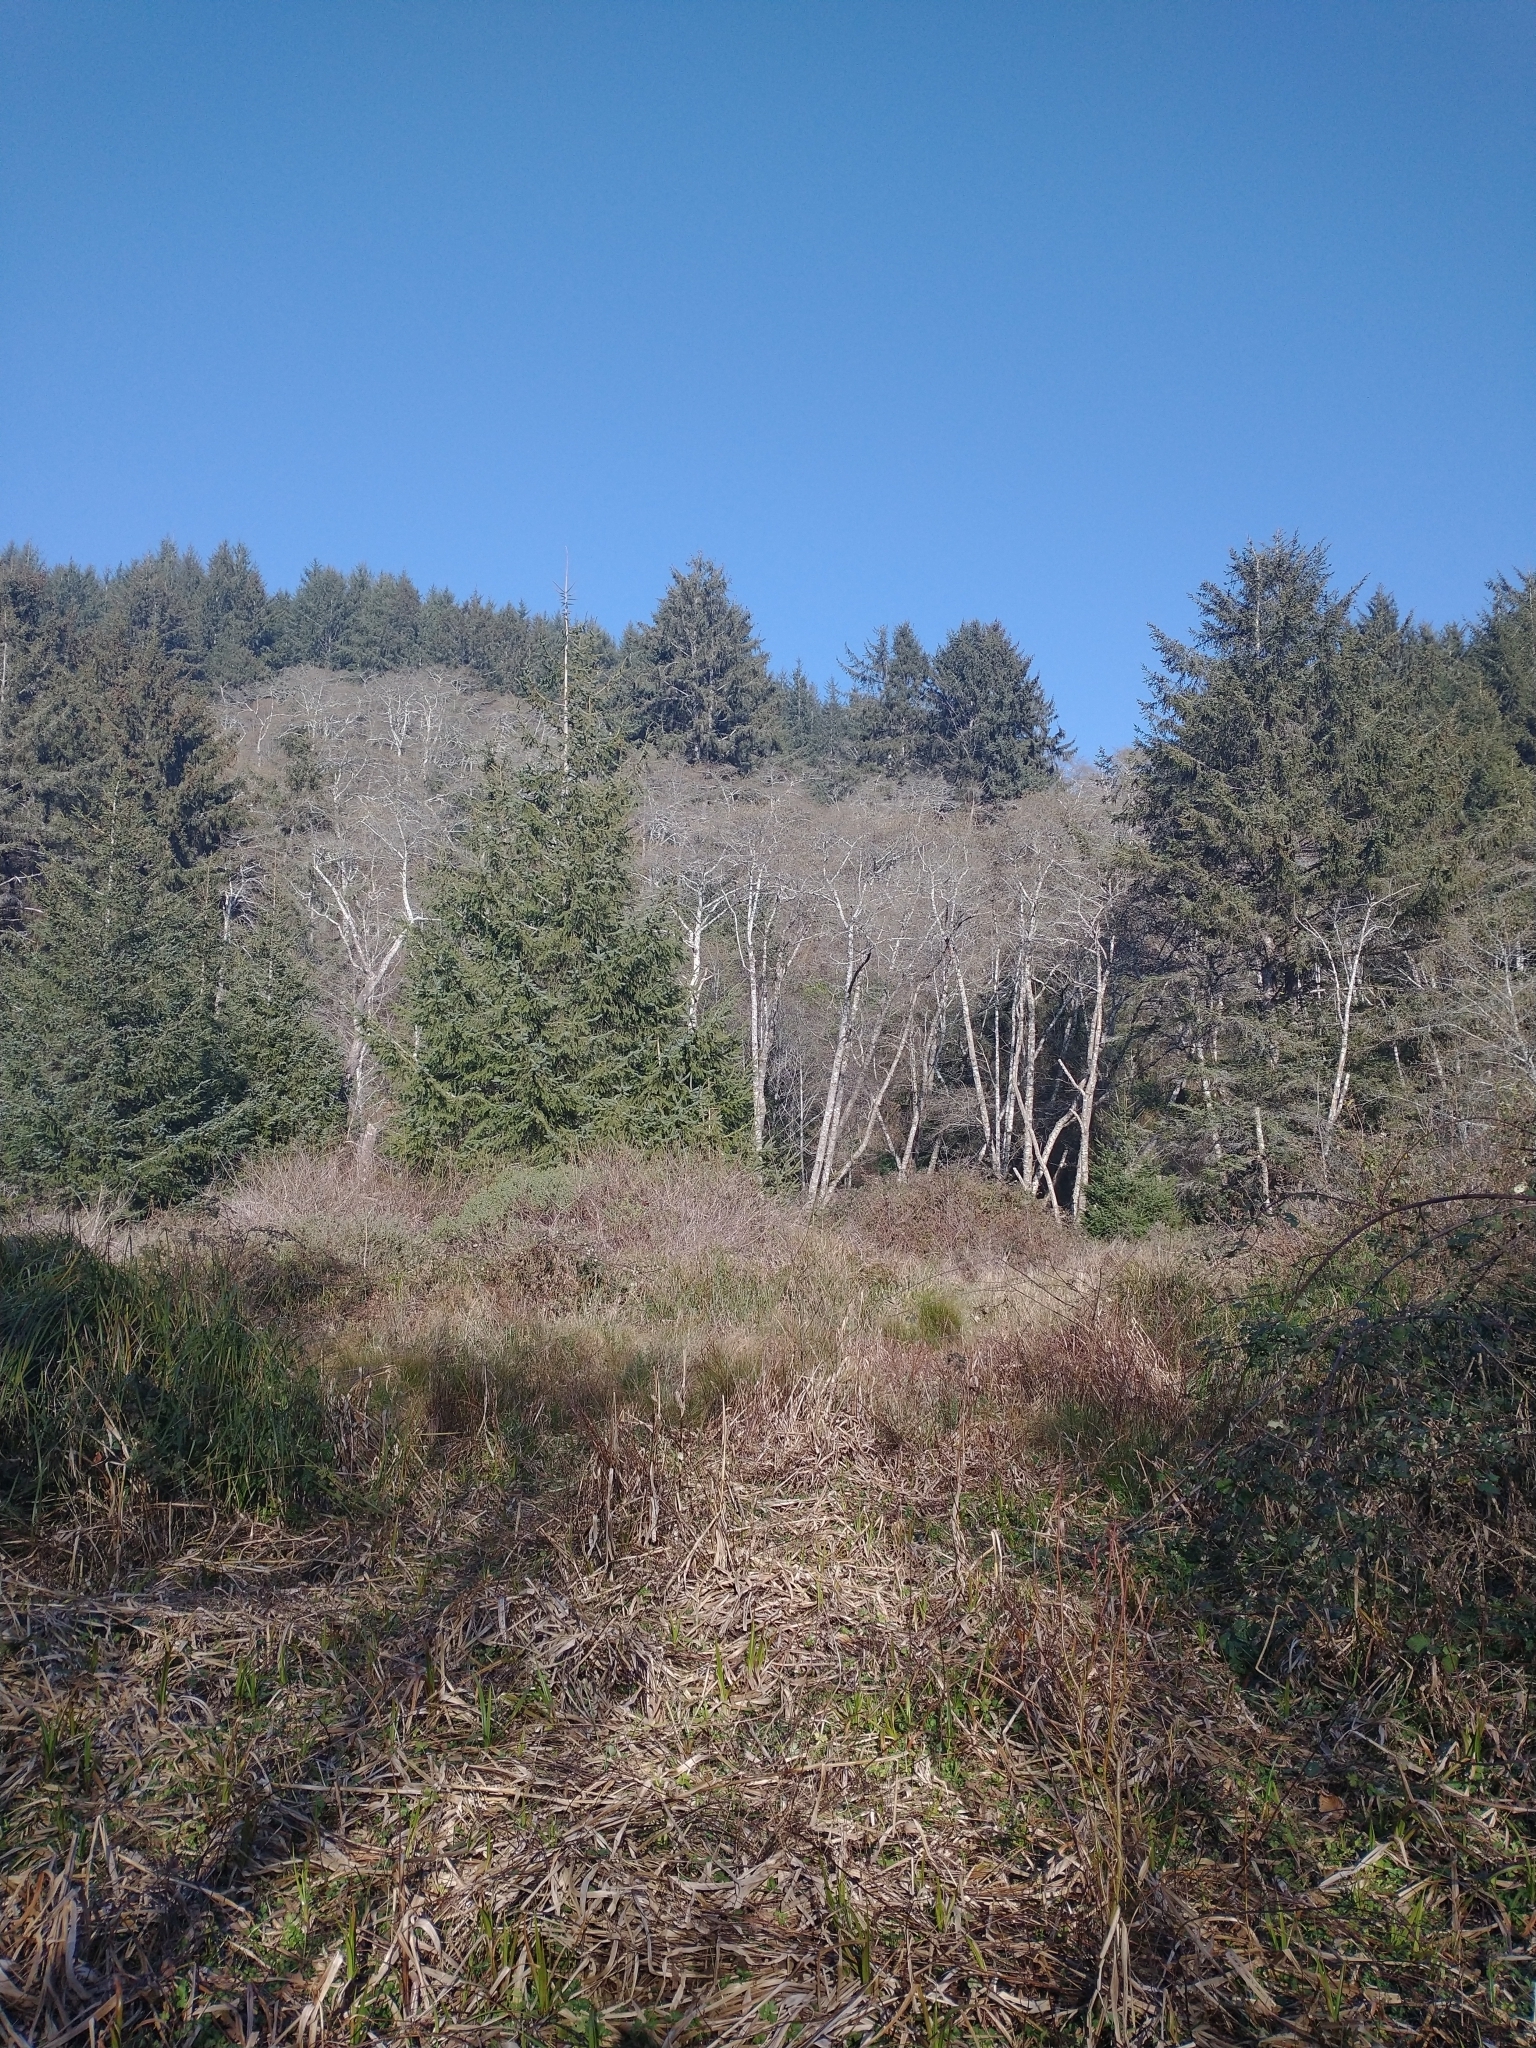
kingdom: Plantae
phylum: Tracheophyta
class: Pinopsida
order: Pinales
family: Pinaceae
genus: Picea
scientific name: Picea sitchensis
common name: Sitka spruce
